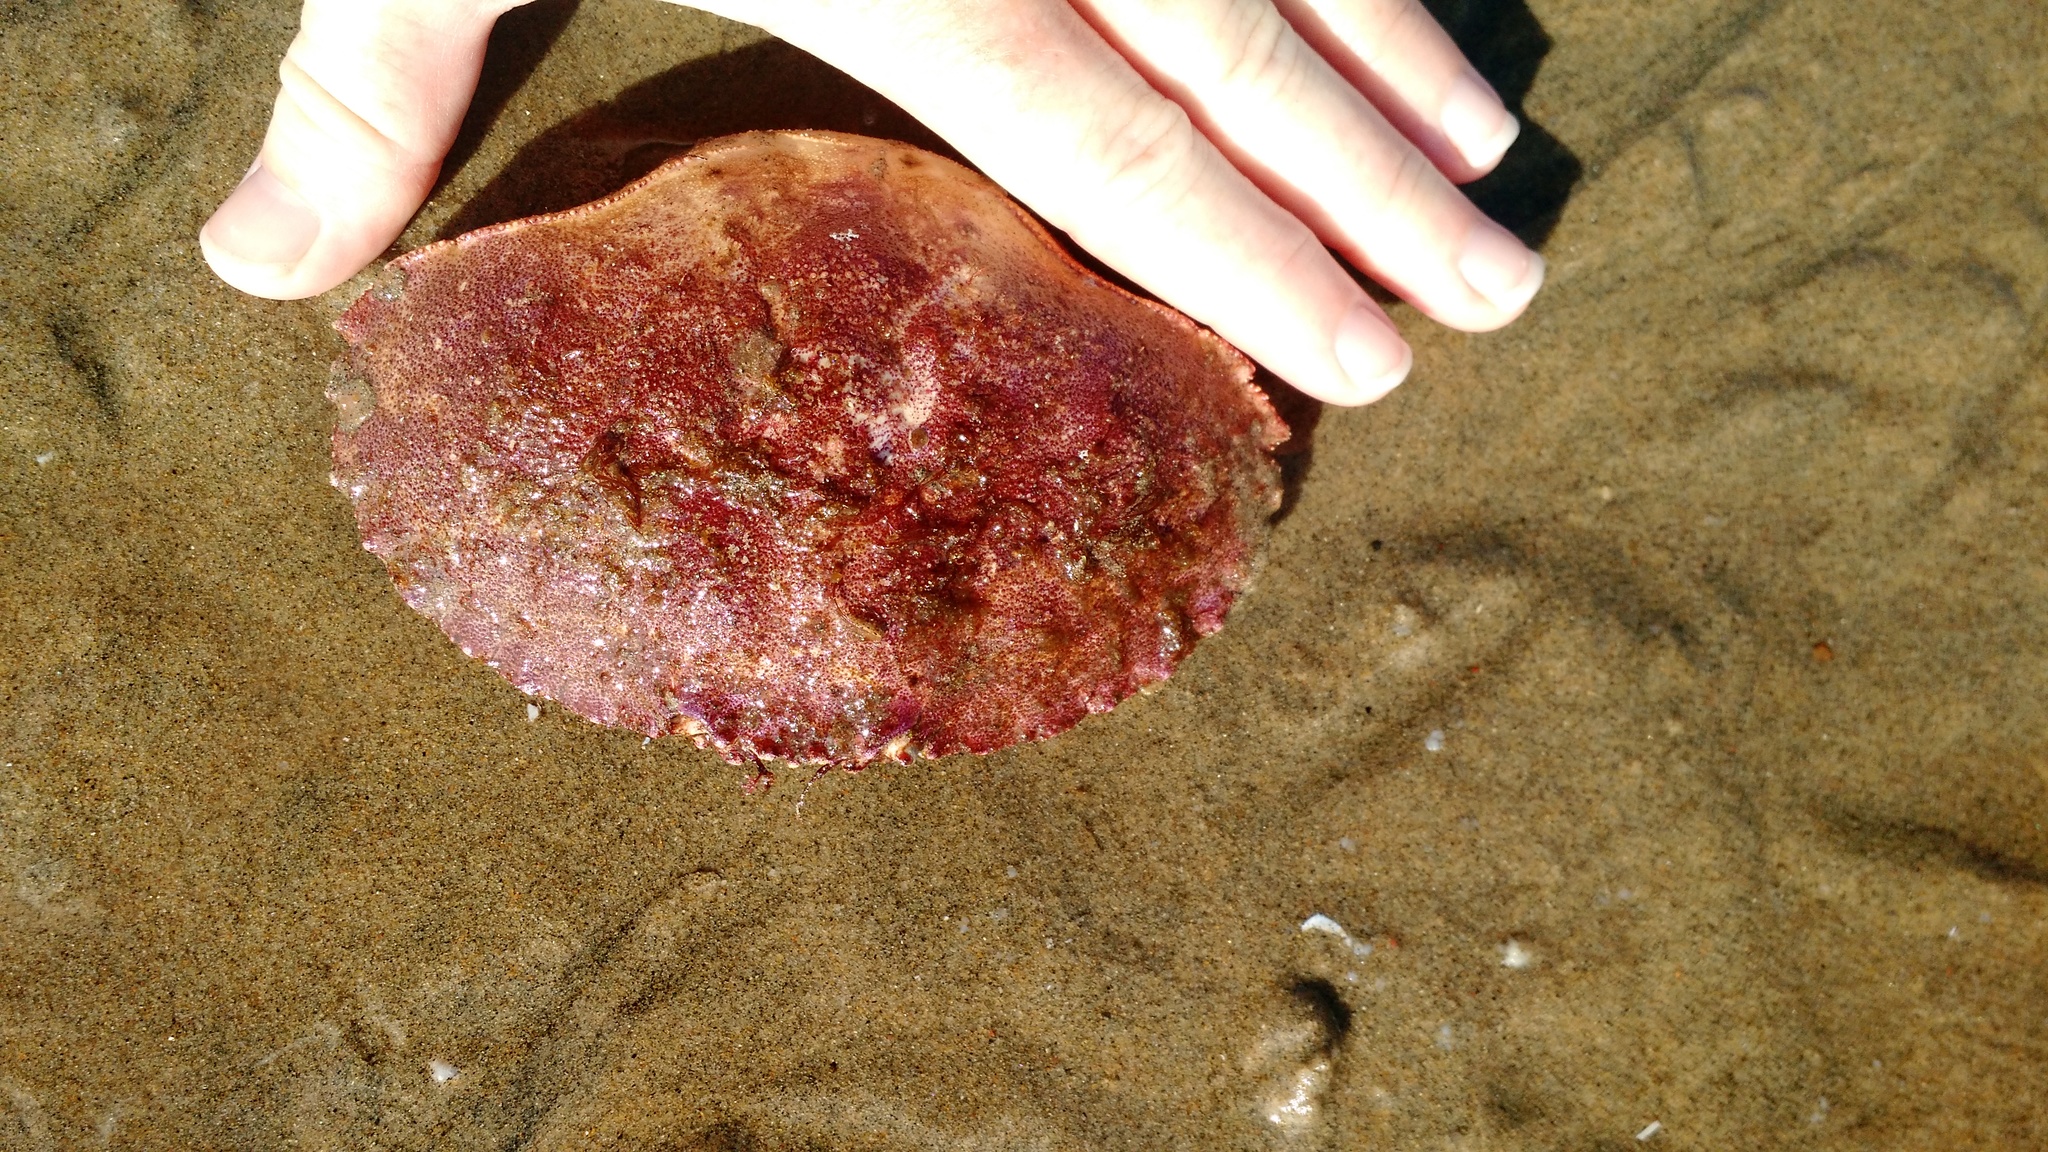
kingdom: Animalia
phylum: Arthropoda
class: Malacostraca
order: Decapoda
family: Cancridae
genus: Cancer
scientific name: Cancer borealis
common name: Jonah crab
